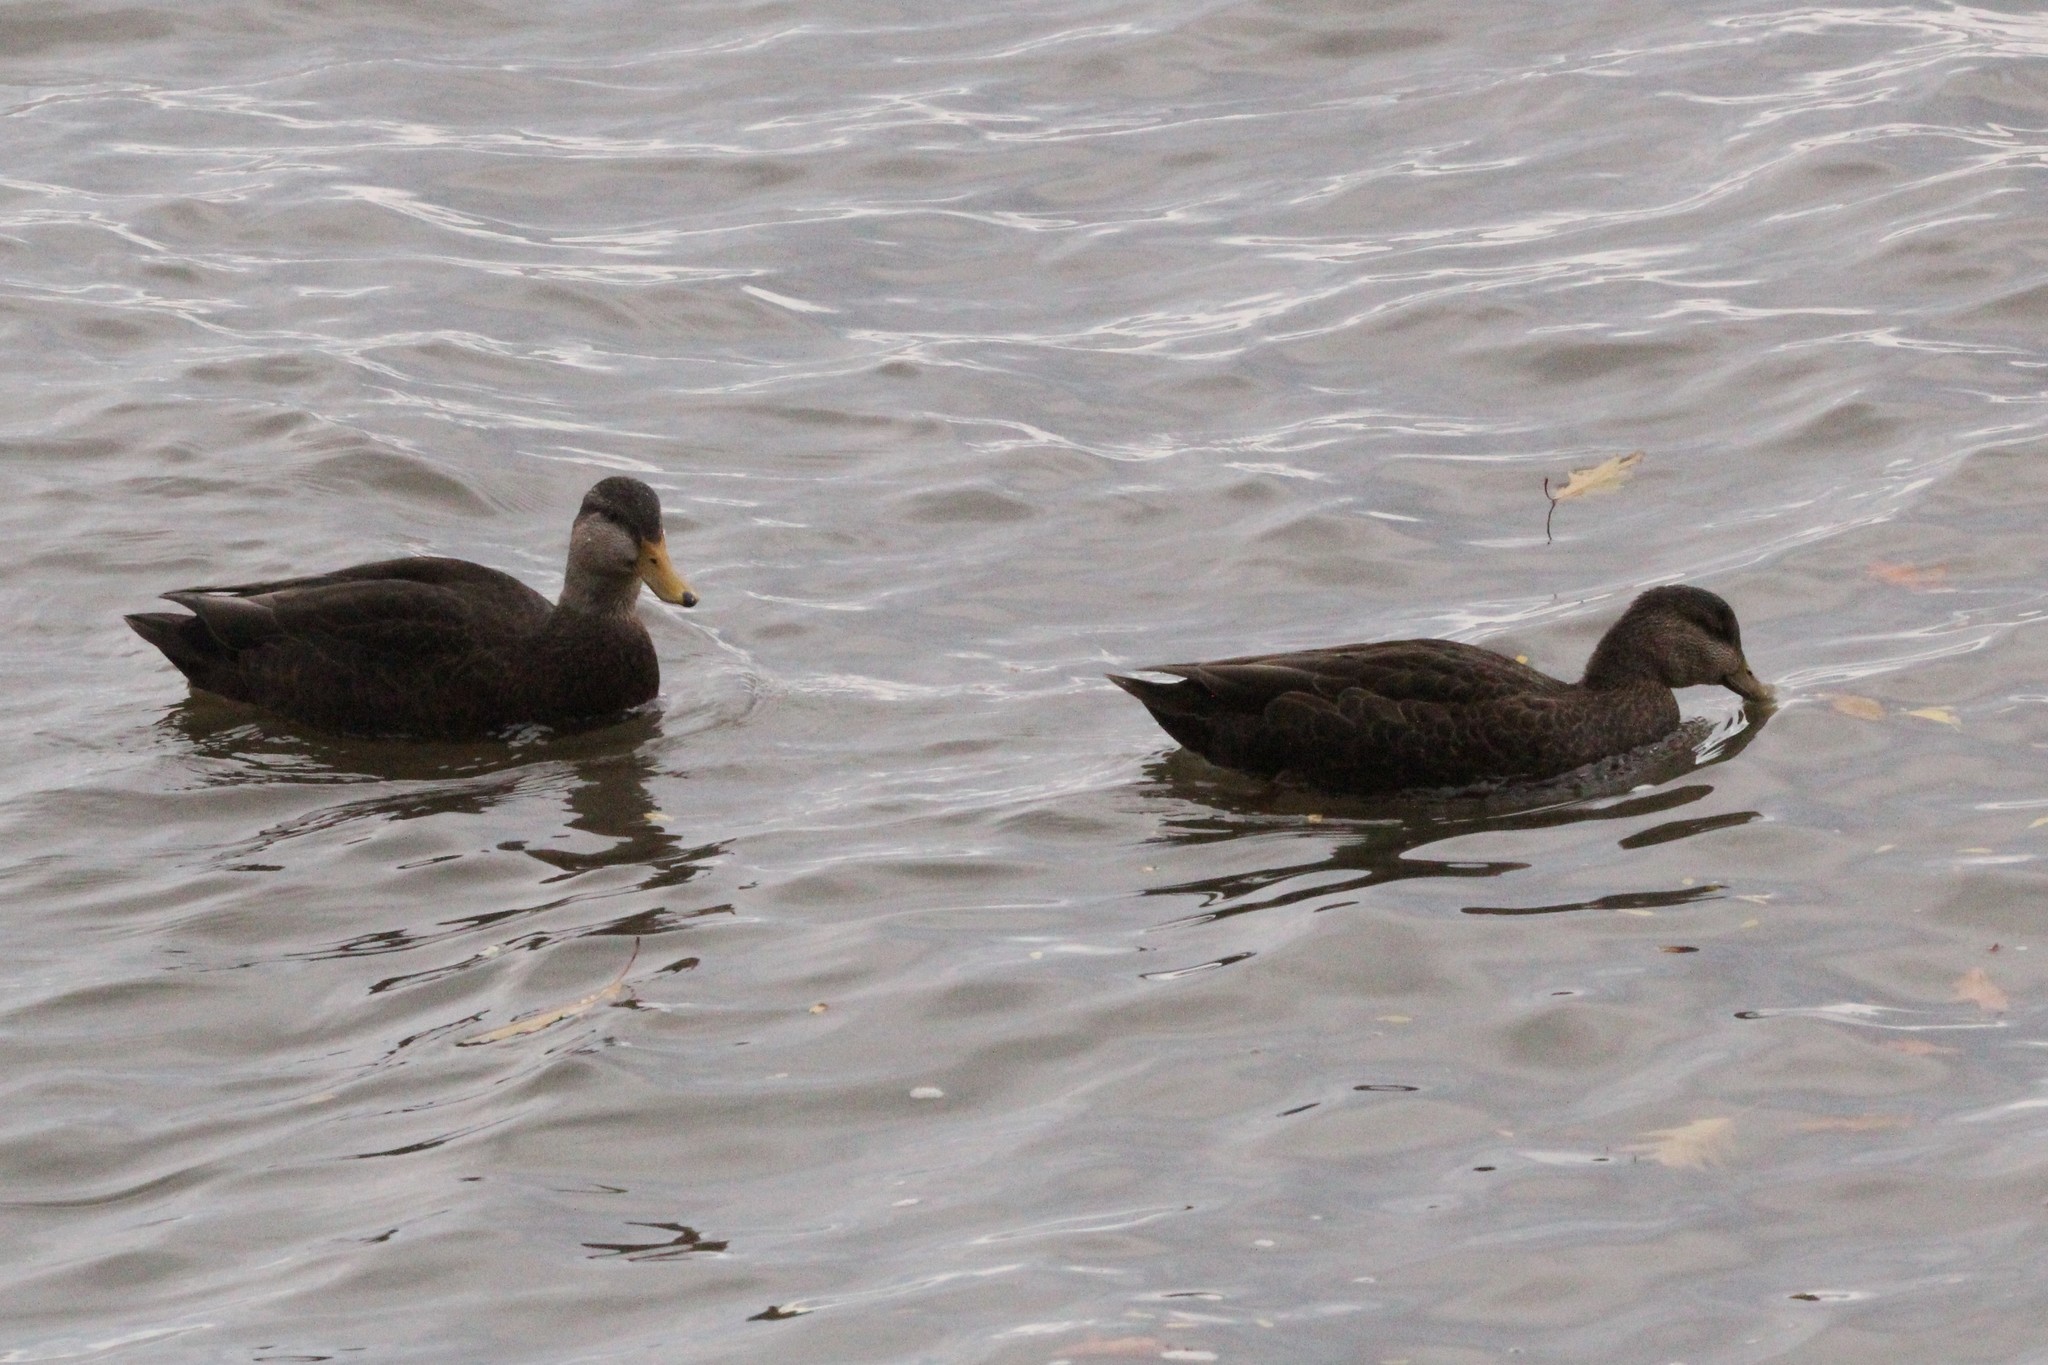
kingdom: Animalia
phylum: Chordata
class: Aves
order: Anseriformes
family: Anatidae
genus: Anas
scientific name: Anas rubripes
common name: American black duck
